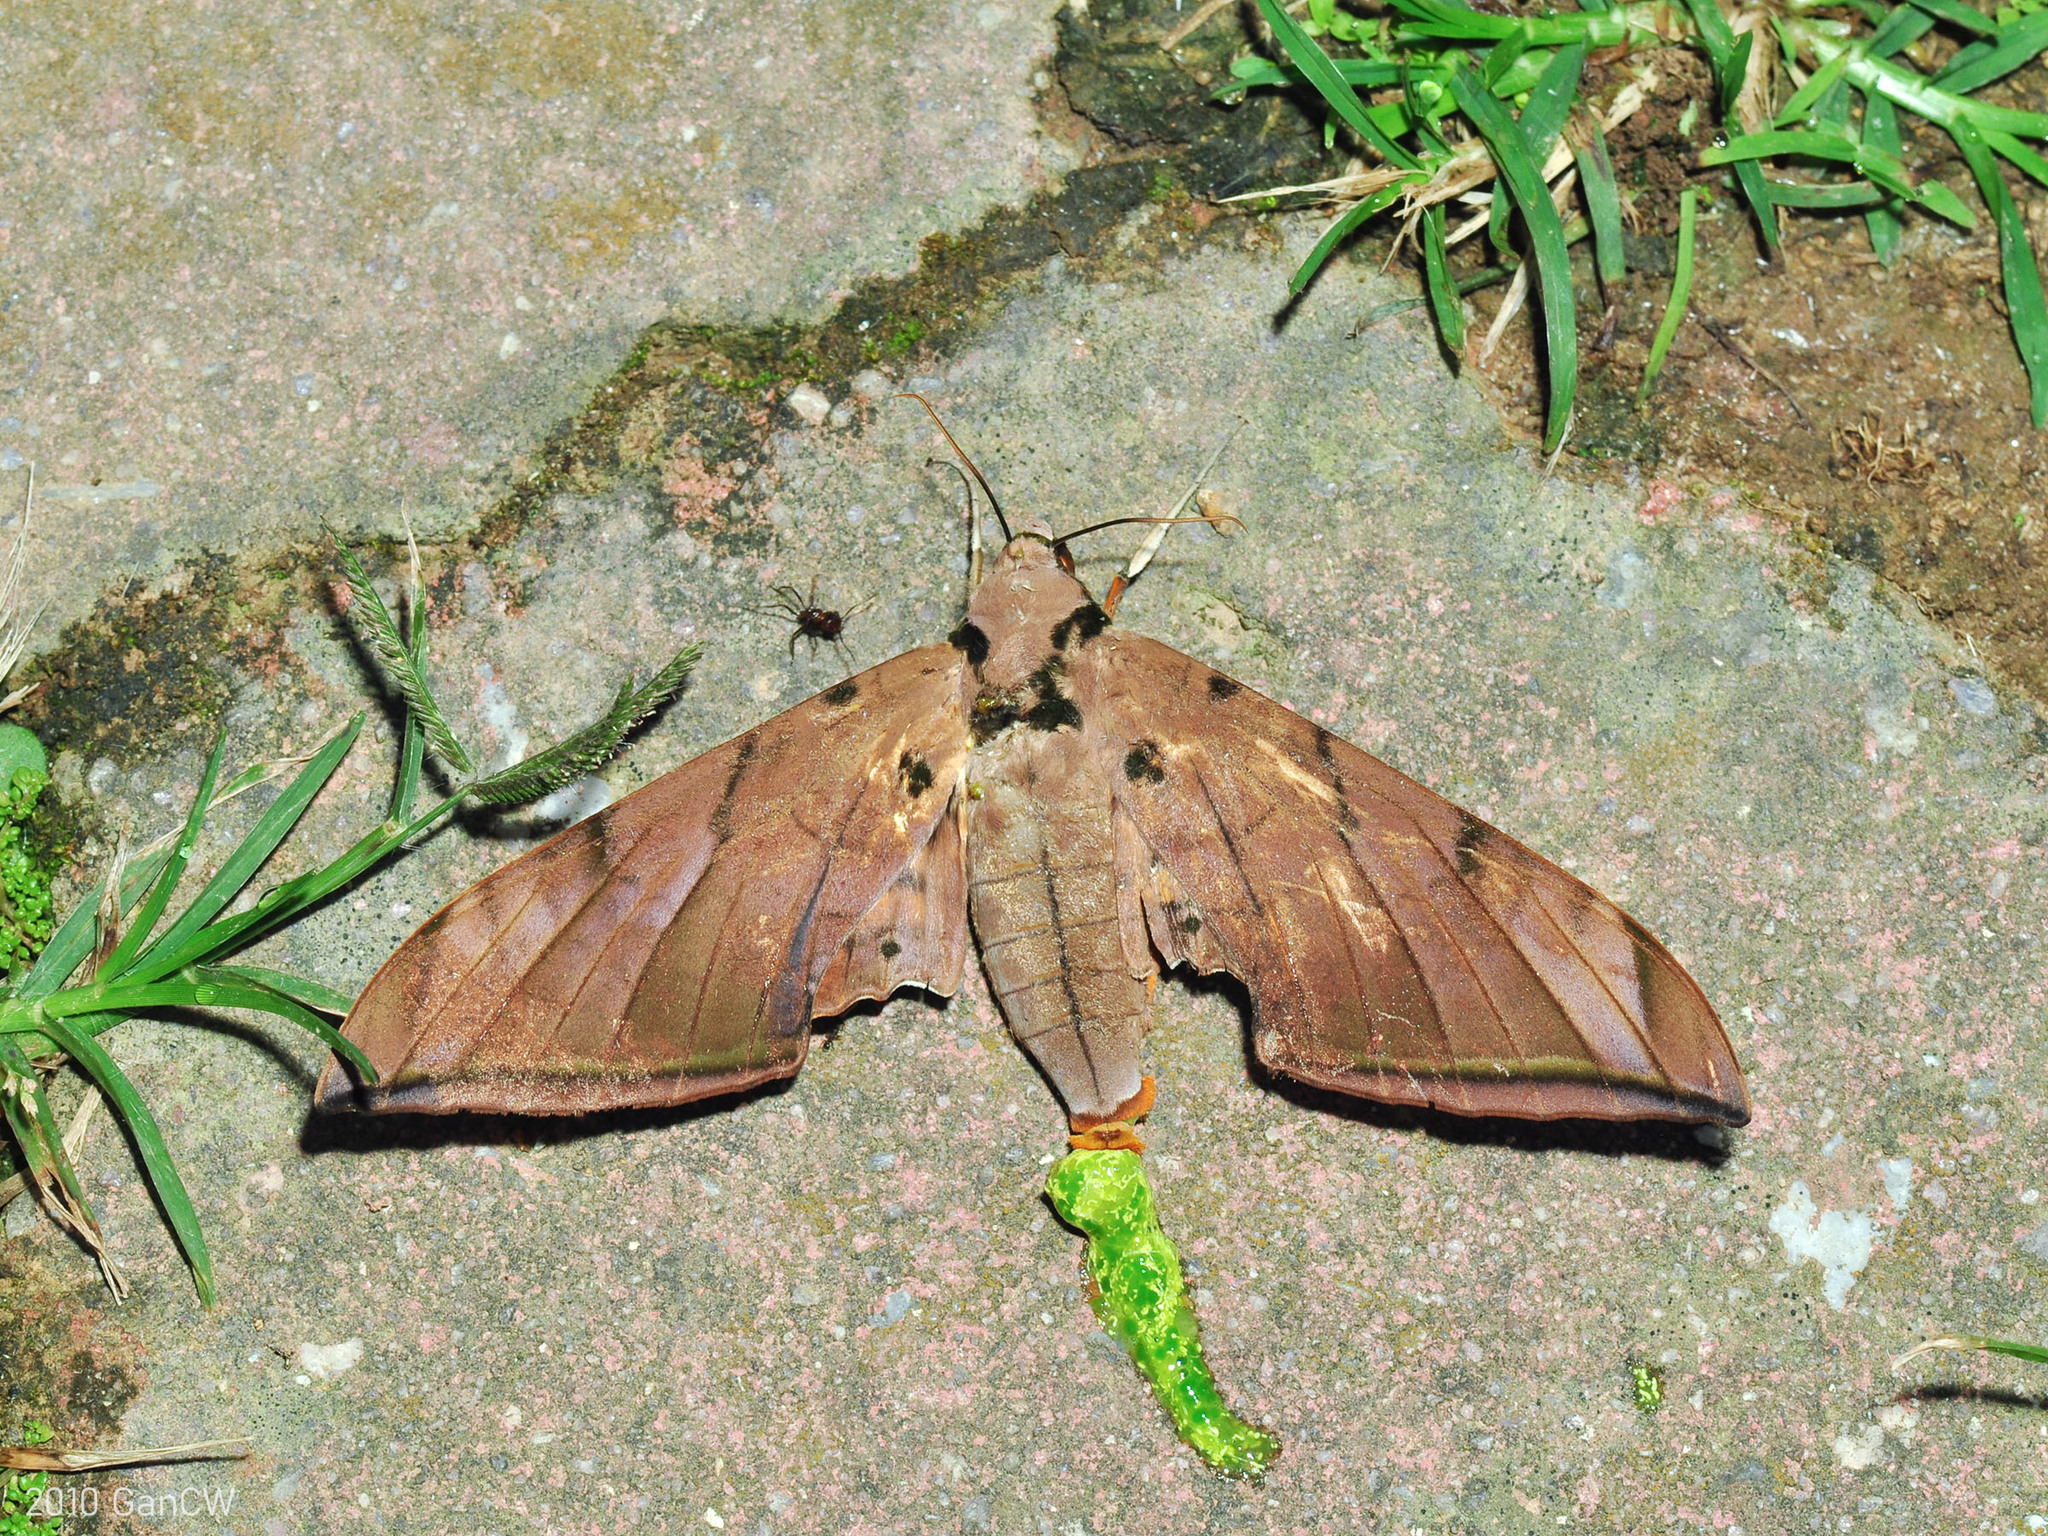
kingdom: Animalia
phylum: Arthropoda
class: Insecta
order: Lepidoptera
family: Sphingidae
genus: Ambulyx
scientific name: Ambulyx pryeri
